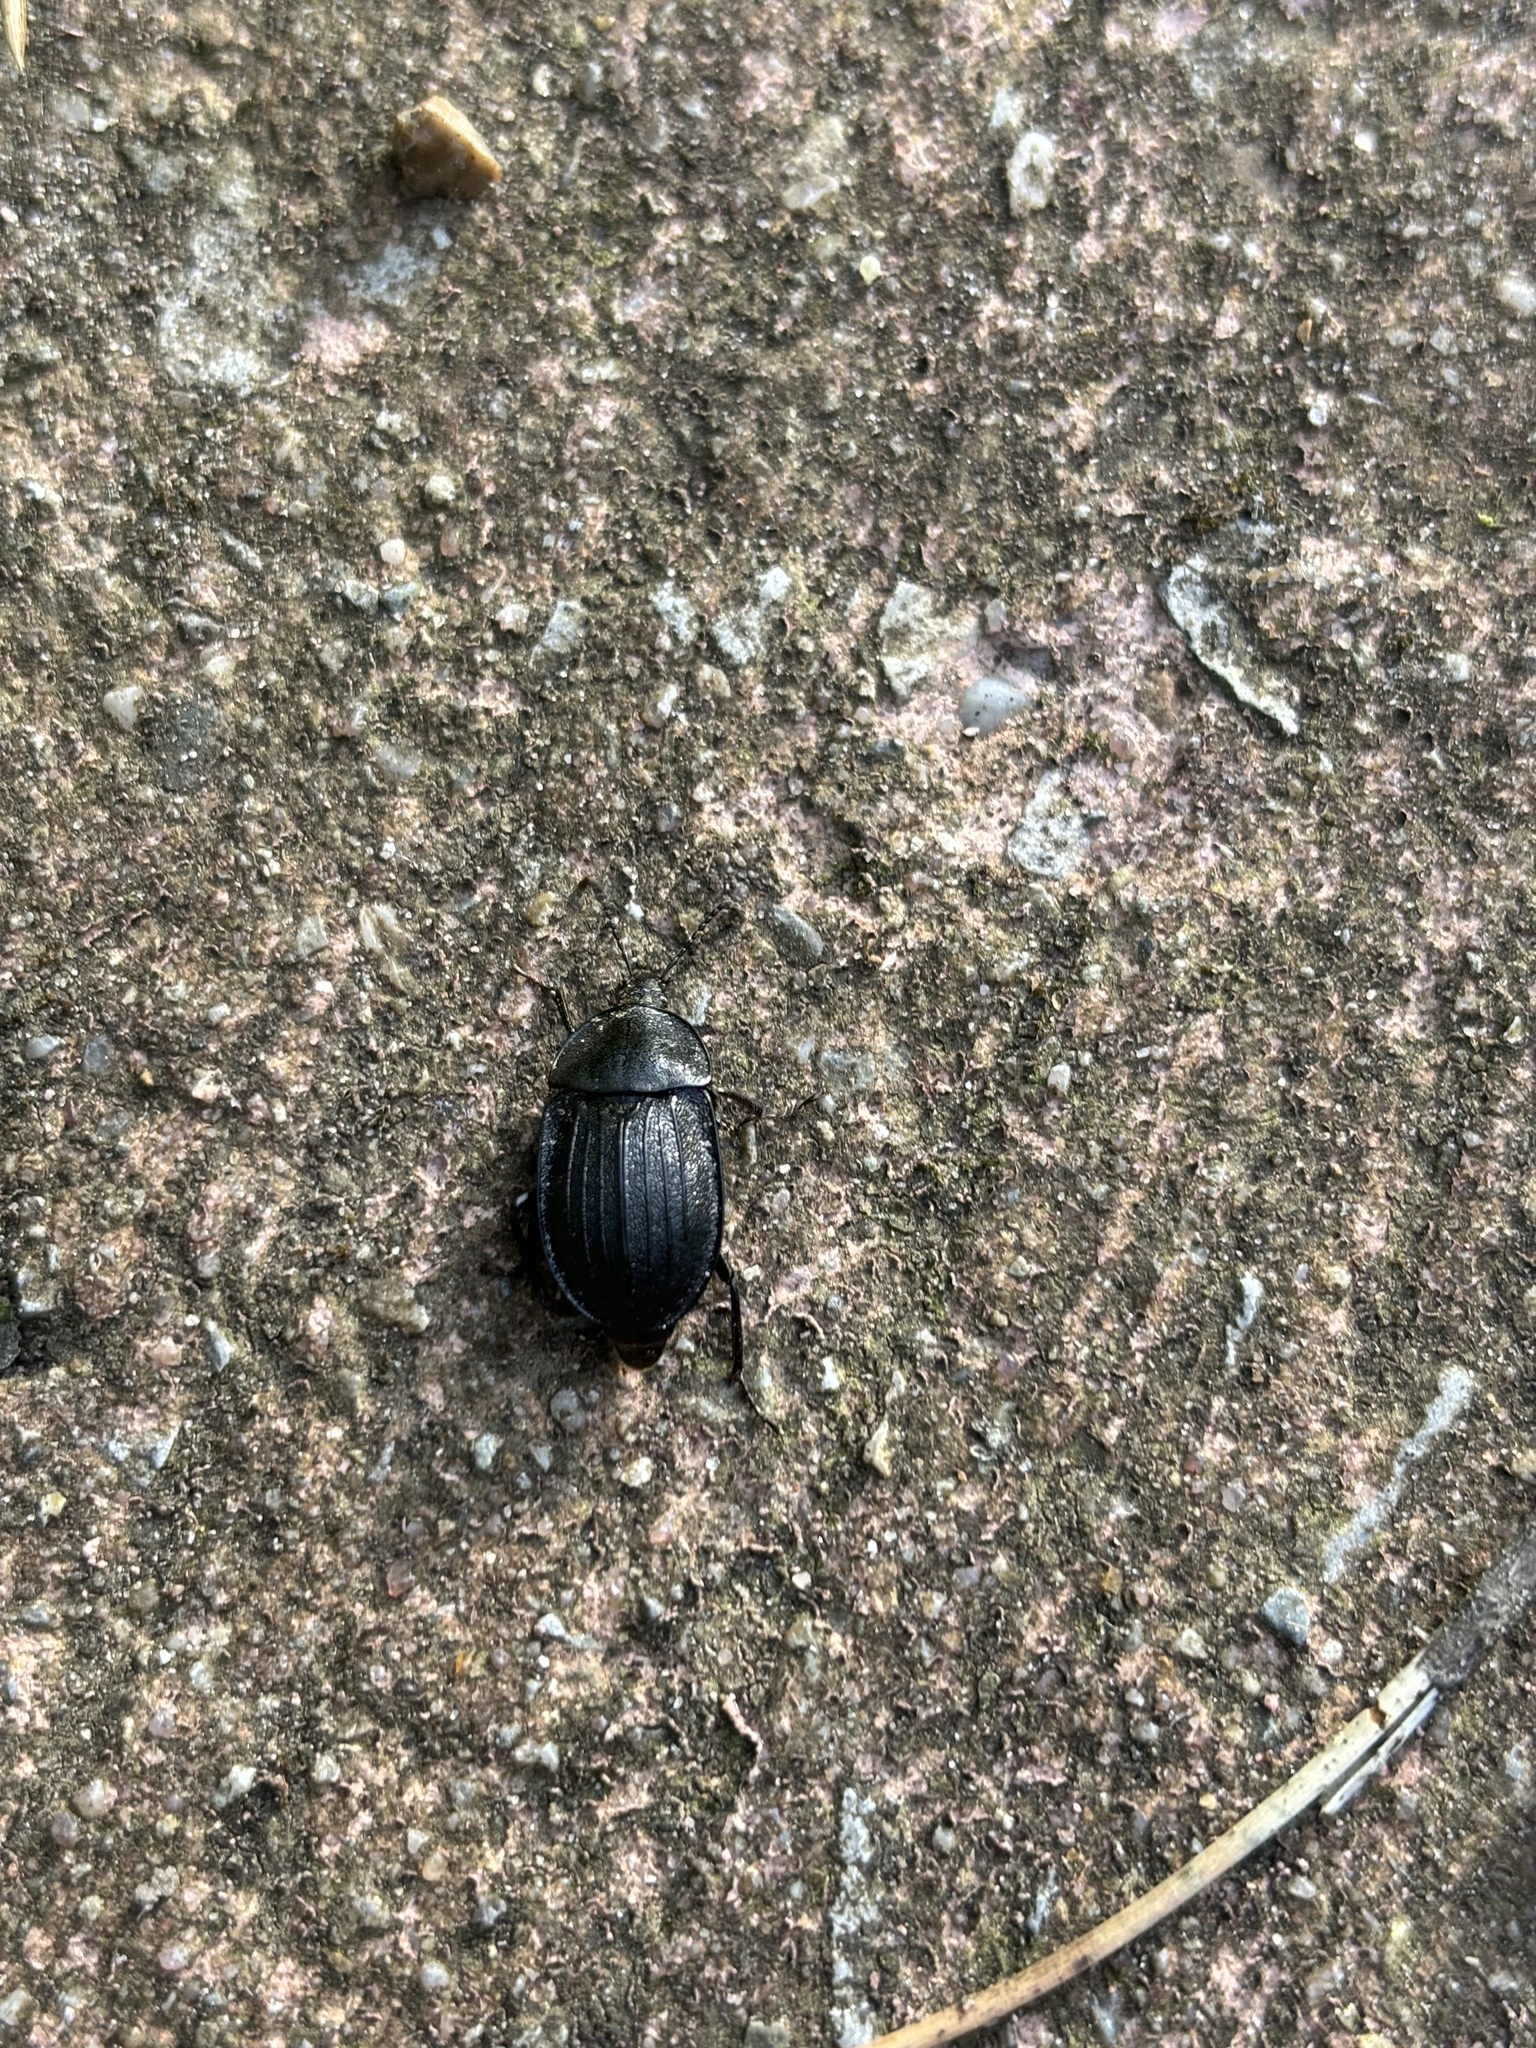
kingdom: Animalia
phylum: Arthropoda
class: Insecta
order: Coleoptera
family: Staphylinidae
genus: Silpha
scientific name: Silpha atrata
